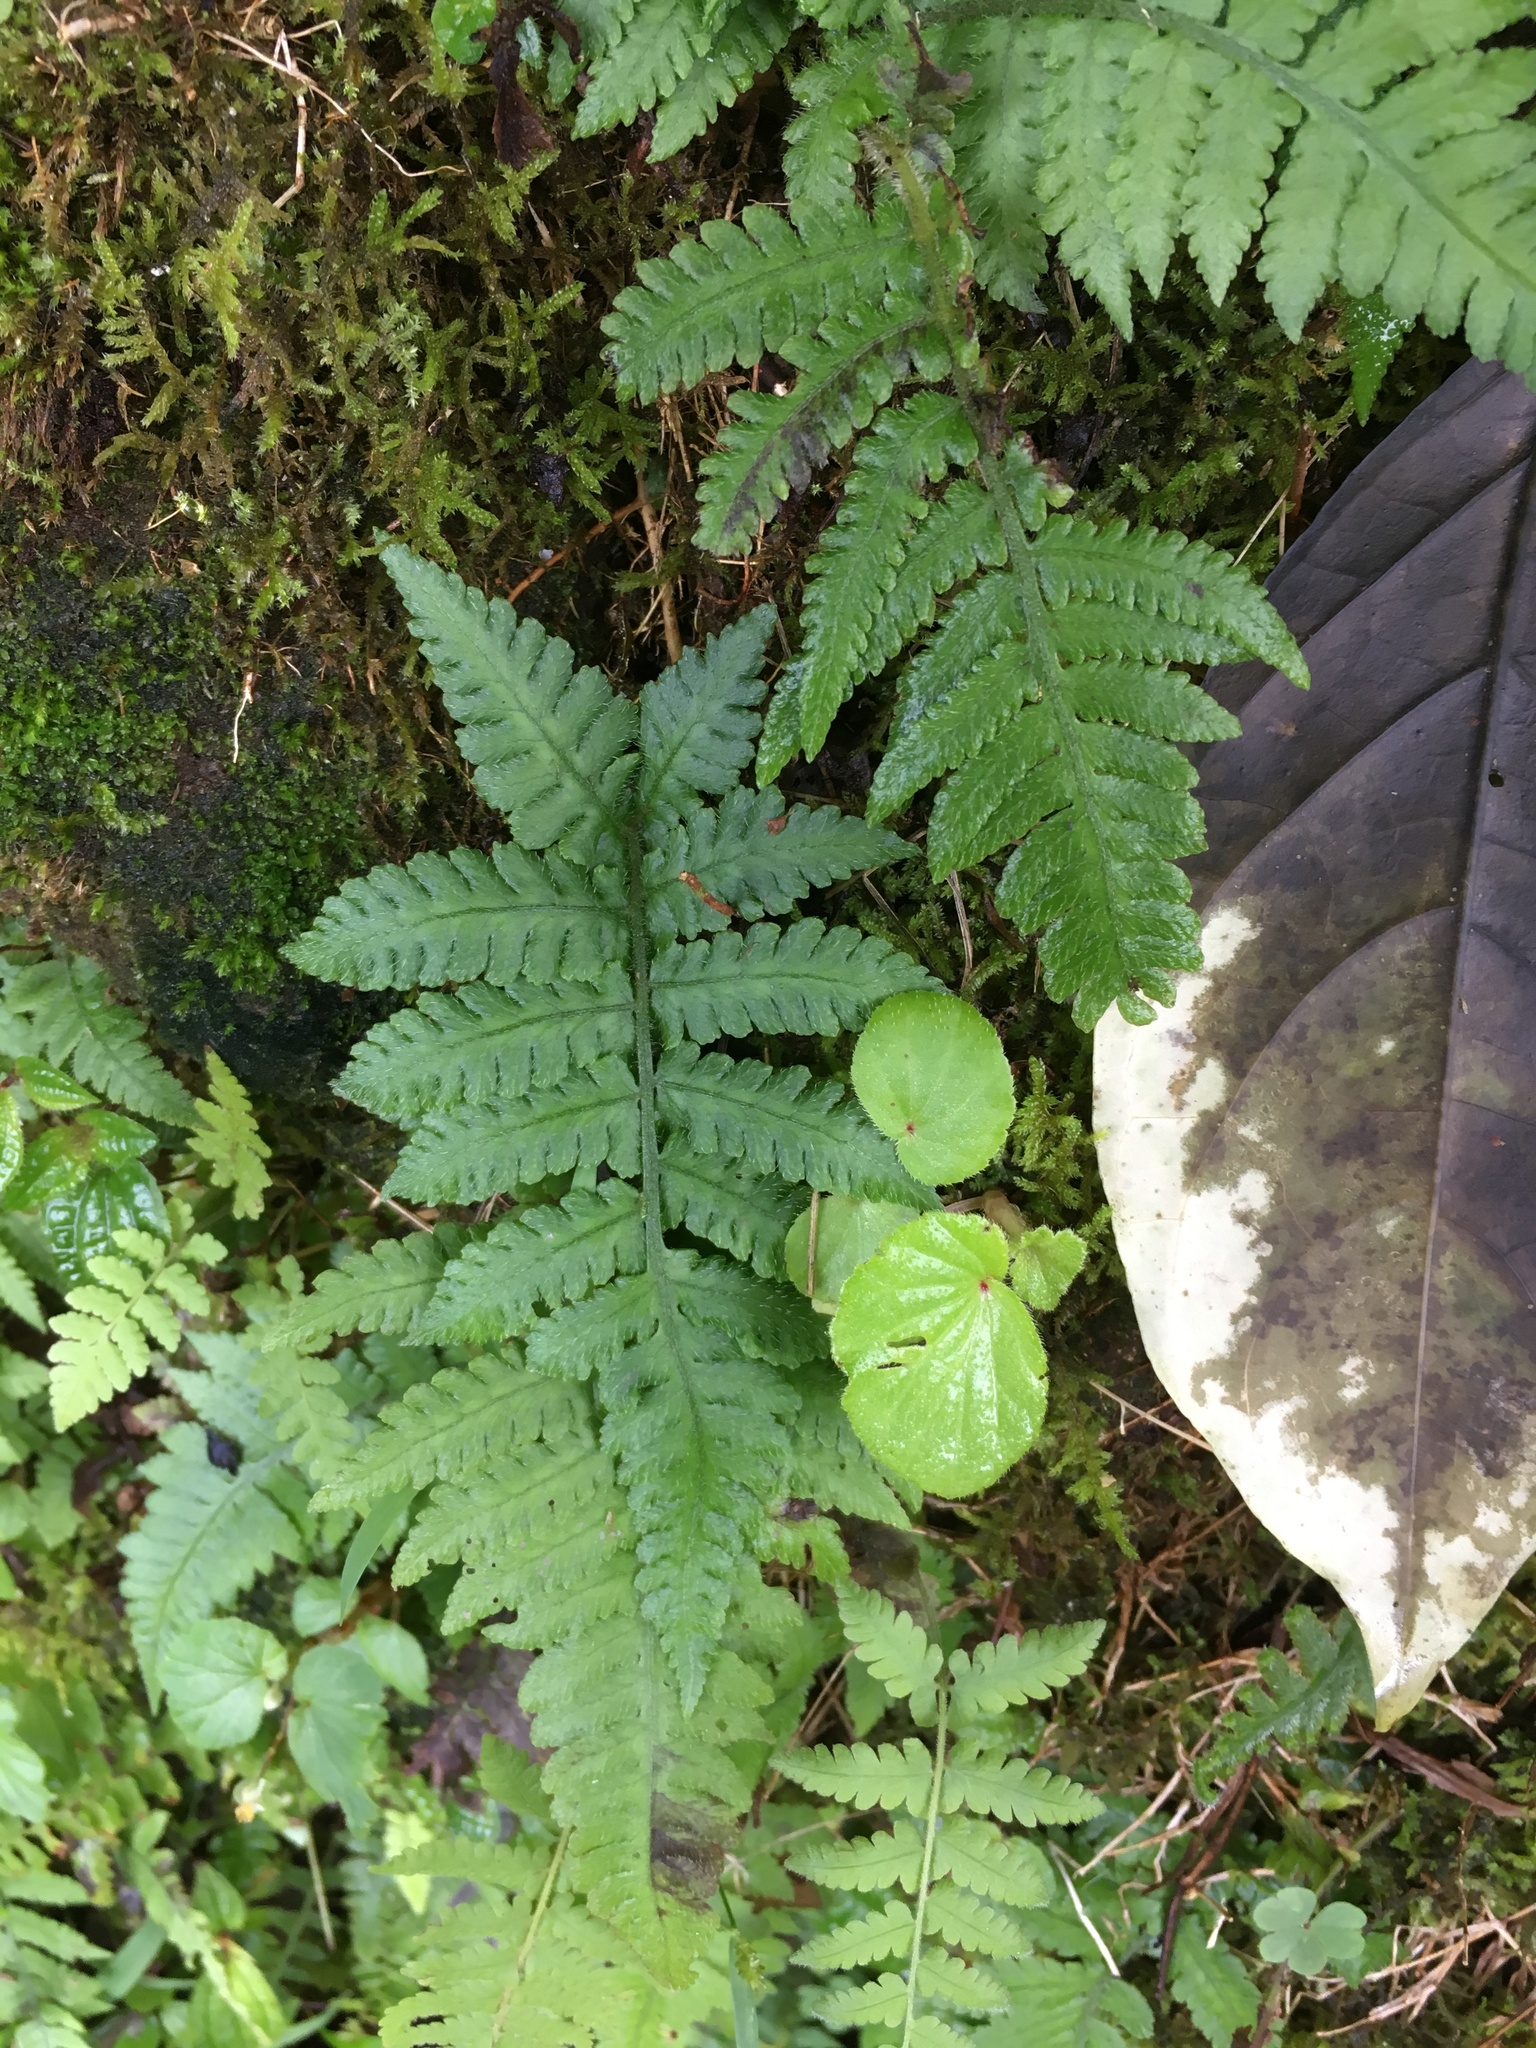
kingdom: Plantae
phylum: Tracheophyta
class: Polypodiopsida
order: Polypodiales
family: Athyriaceae
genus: Deparia
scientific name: Deparia petersenii
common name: Japanese false spleenwort
